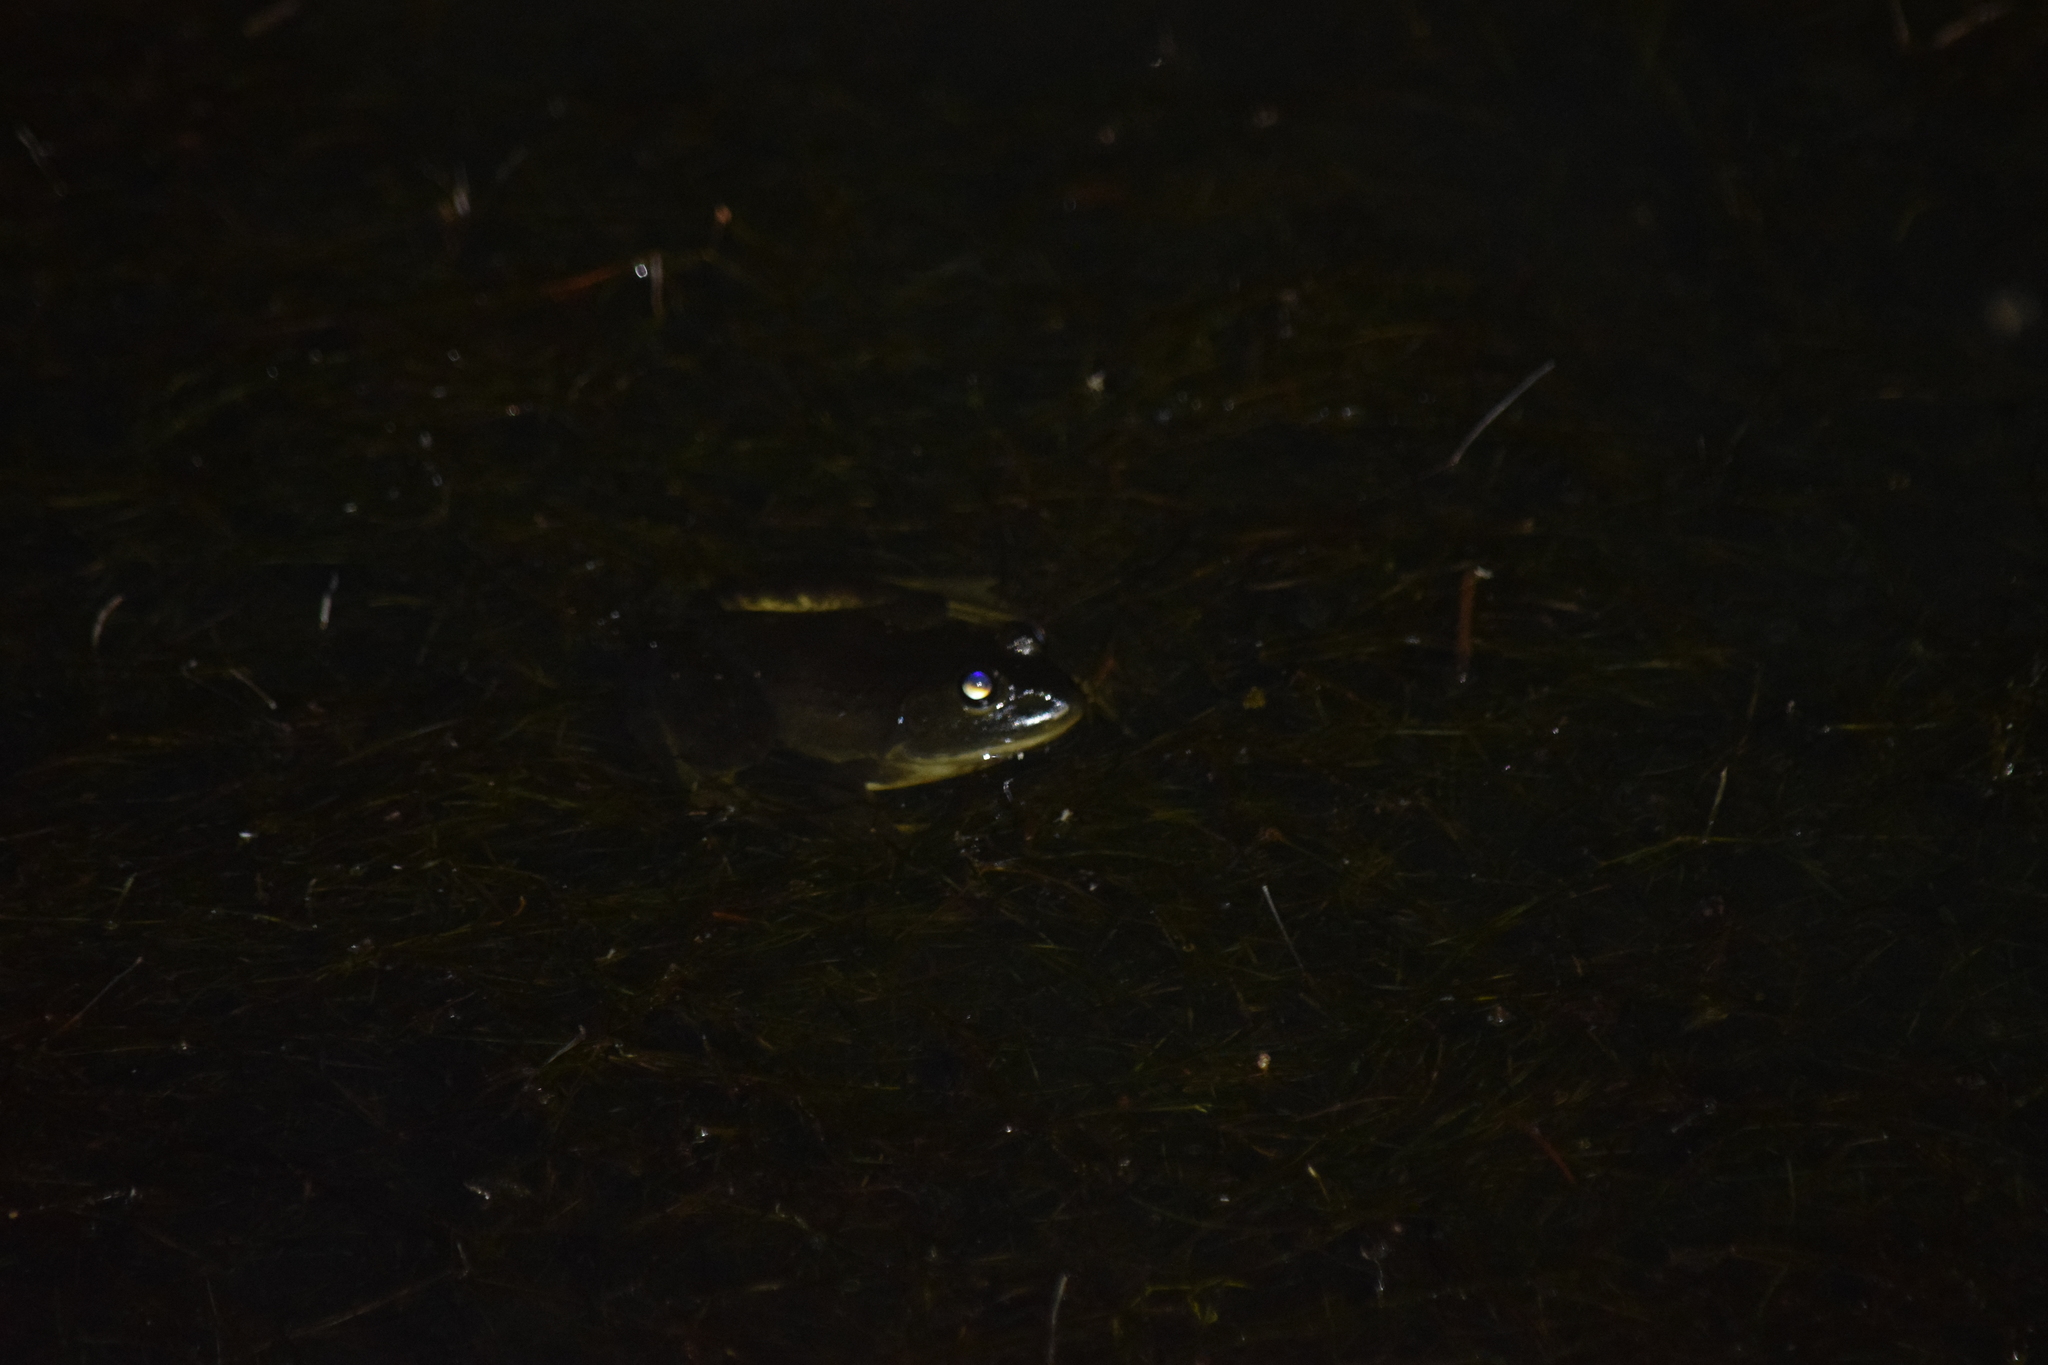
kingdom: Animalia
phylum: Chordata
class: Amphibia
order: Anura
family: Ranidae
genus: Lithobates
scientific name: Lithobates catesbeianus
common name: American bullfrog
